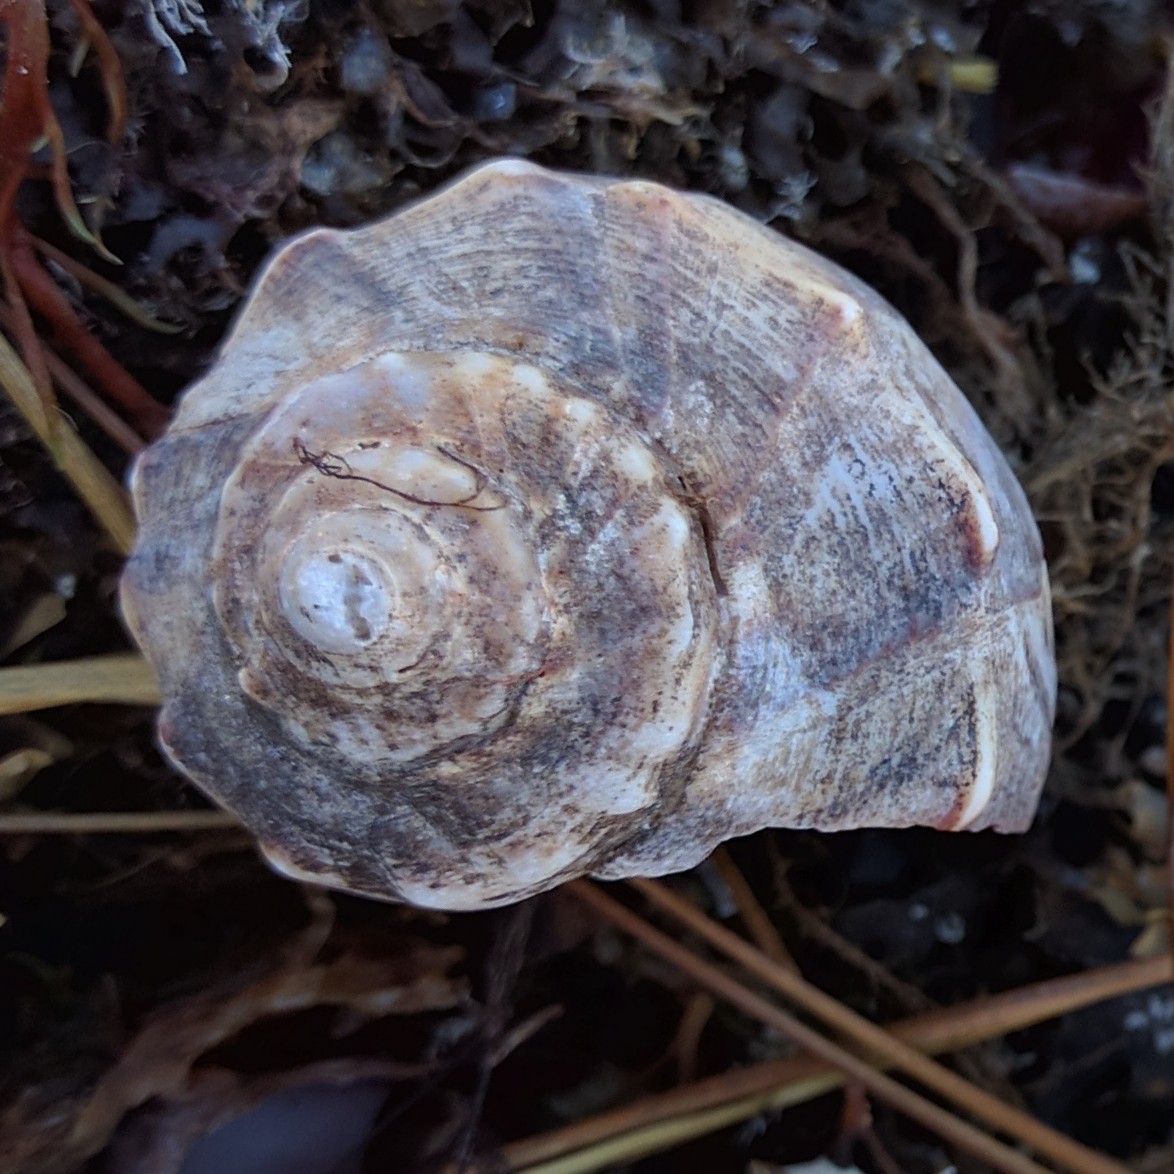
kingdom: Animalia
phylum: Mollusca
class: Gastropoda
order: Neogastropoda
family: Busyconidae
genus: Busycon
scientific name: Busycon carica
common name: Knobbed whelk
